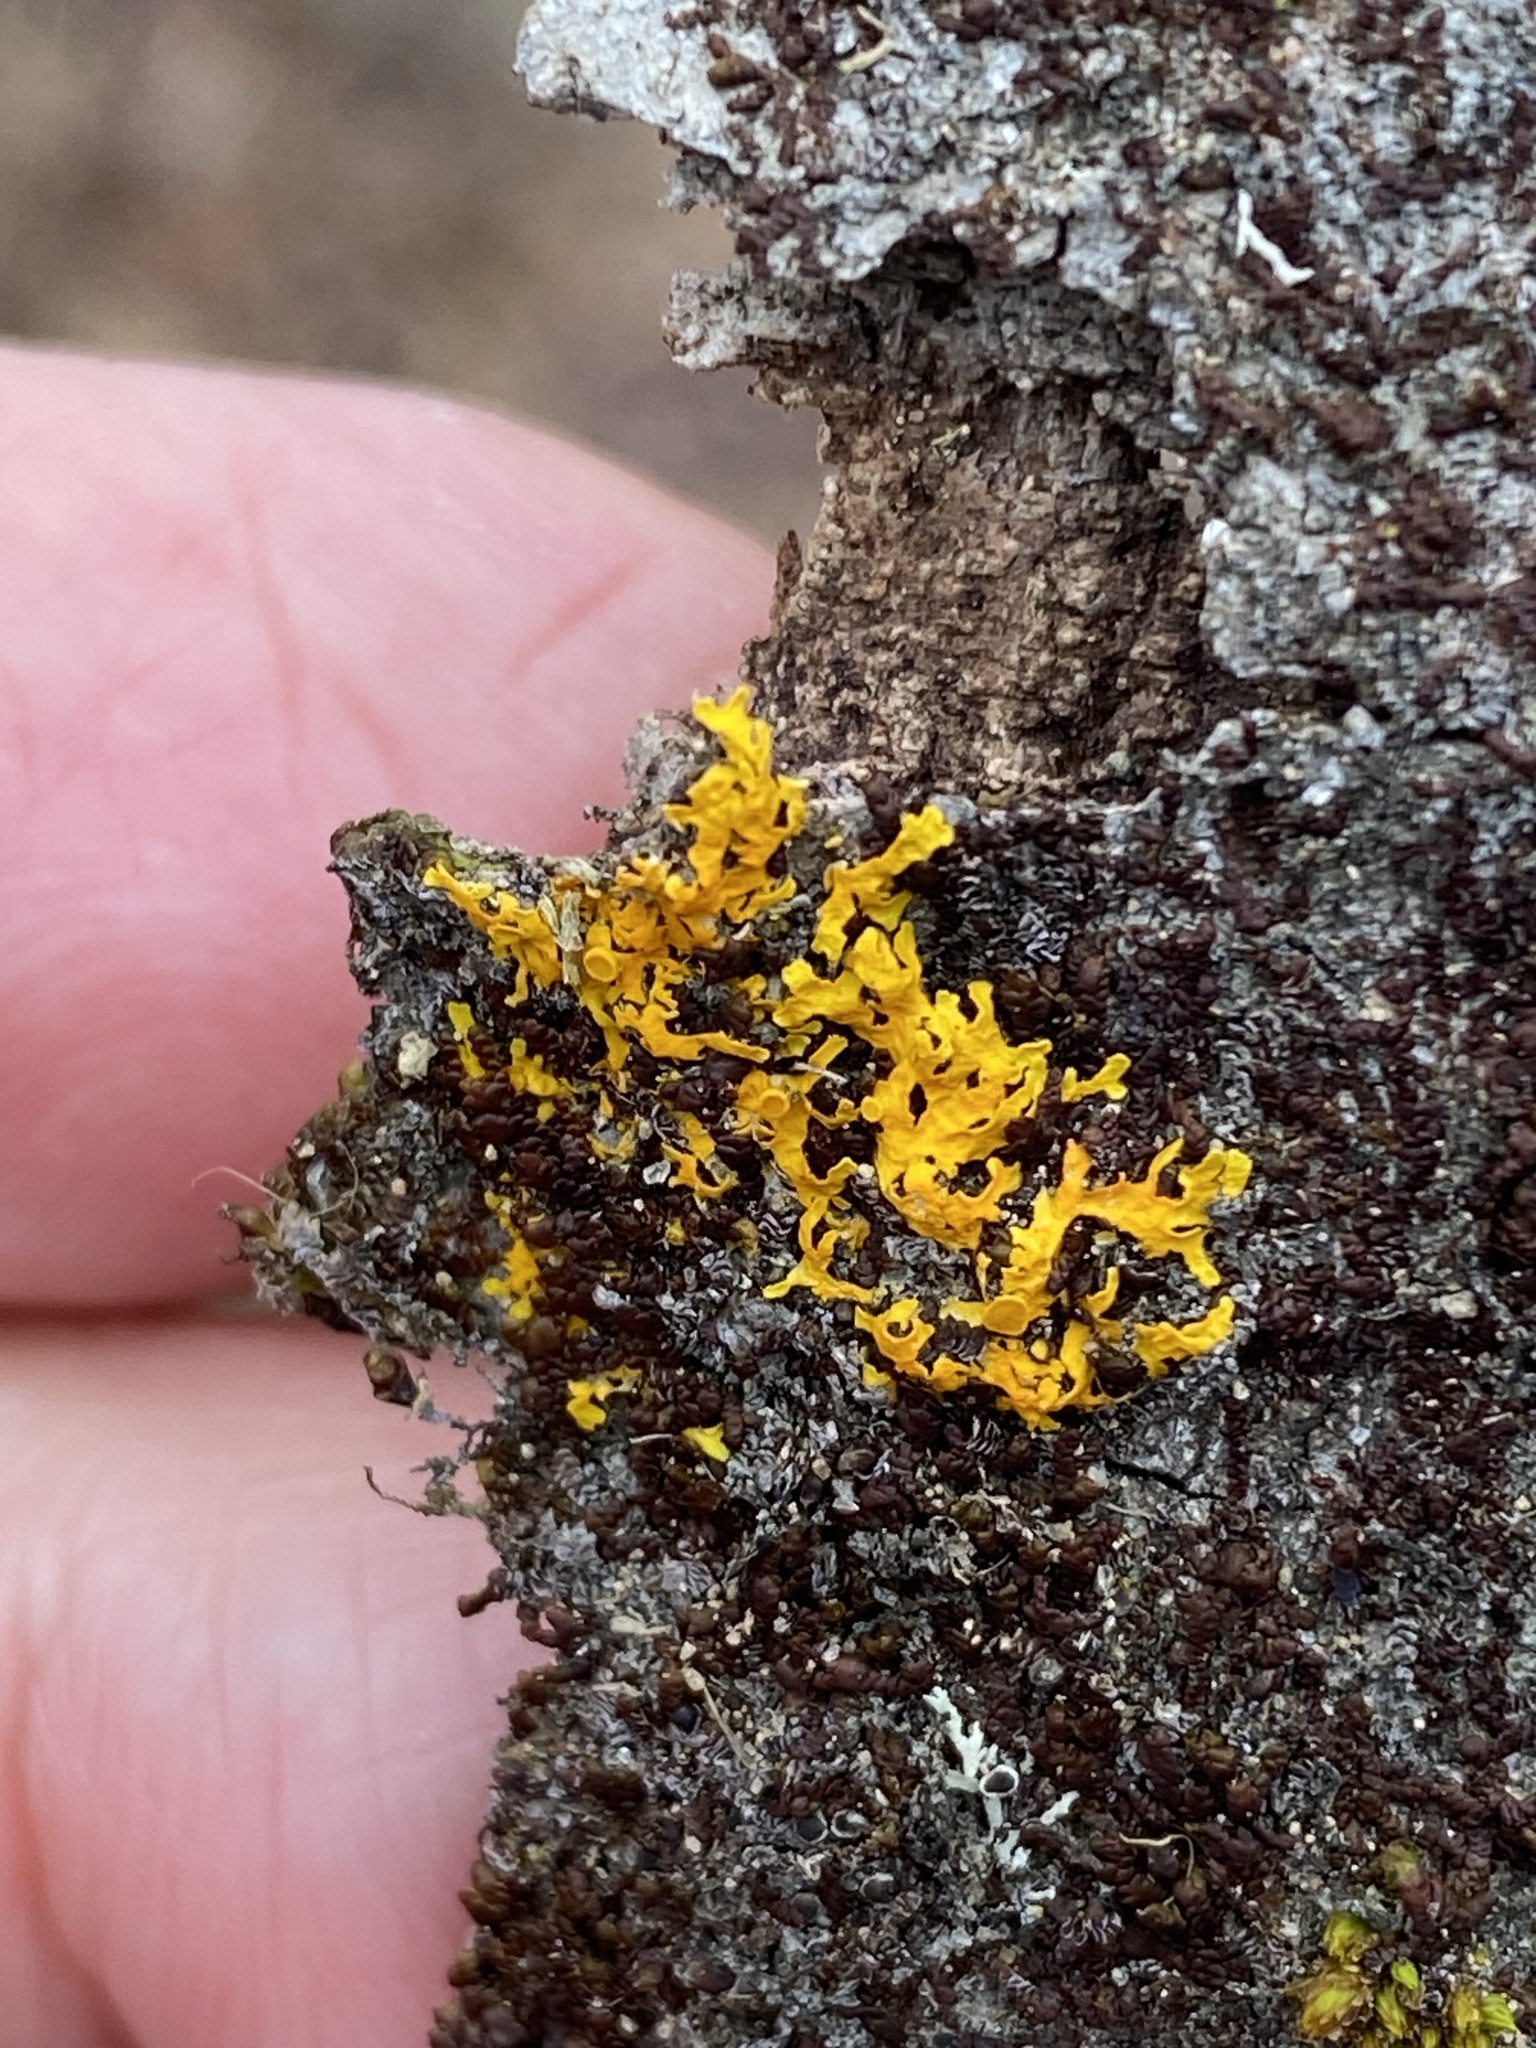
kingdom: Fungi
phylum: Ascomycota
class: Lecanoromycetes
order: Teloschistales
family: Teloschistaceae
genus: Xanthoria
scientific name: Xanthoria parietina
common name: Common orange lichen
